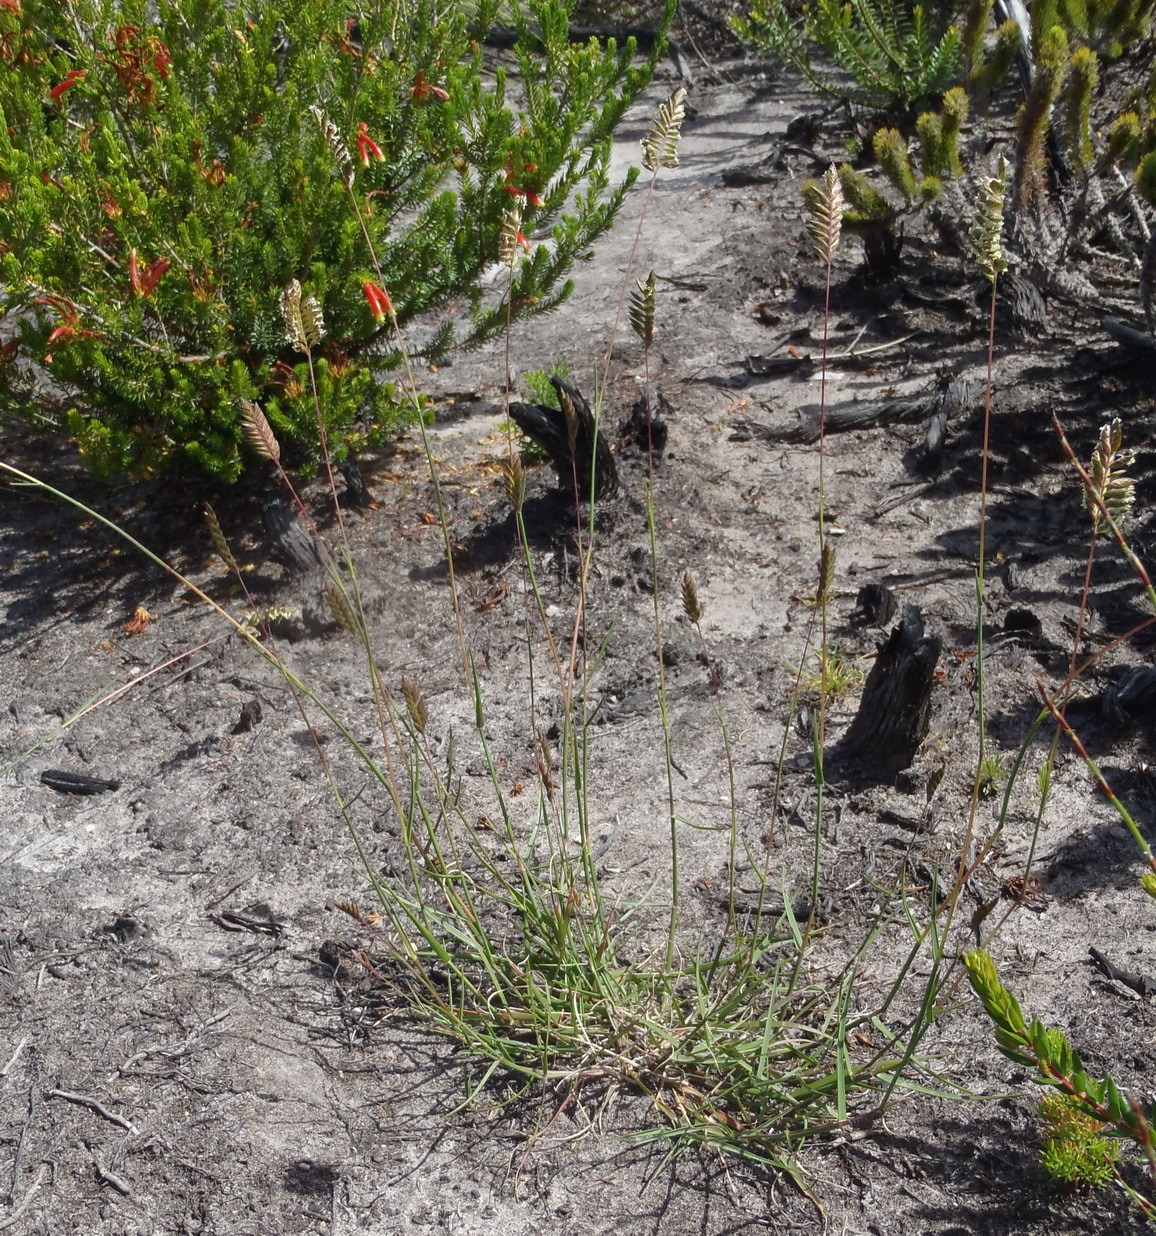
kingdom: Plantae
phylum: Tracheophyta
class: Liliopsida
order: Poales
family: Poaceae
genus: Tribolium
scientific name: Tribolium uniolae
